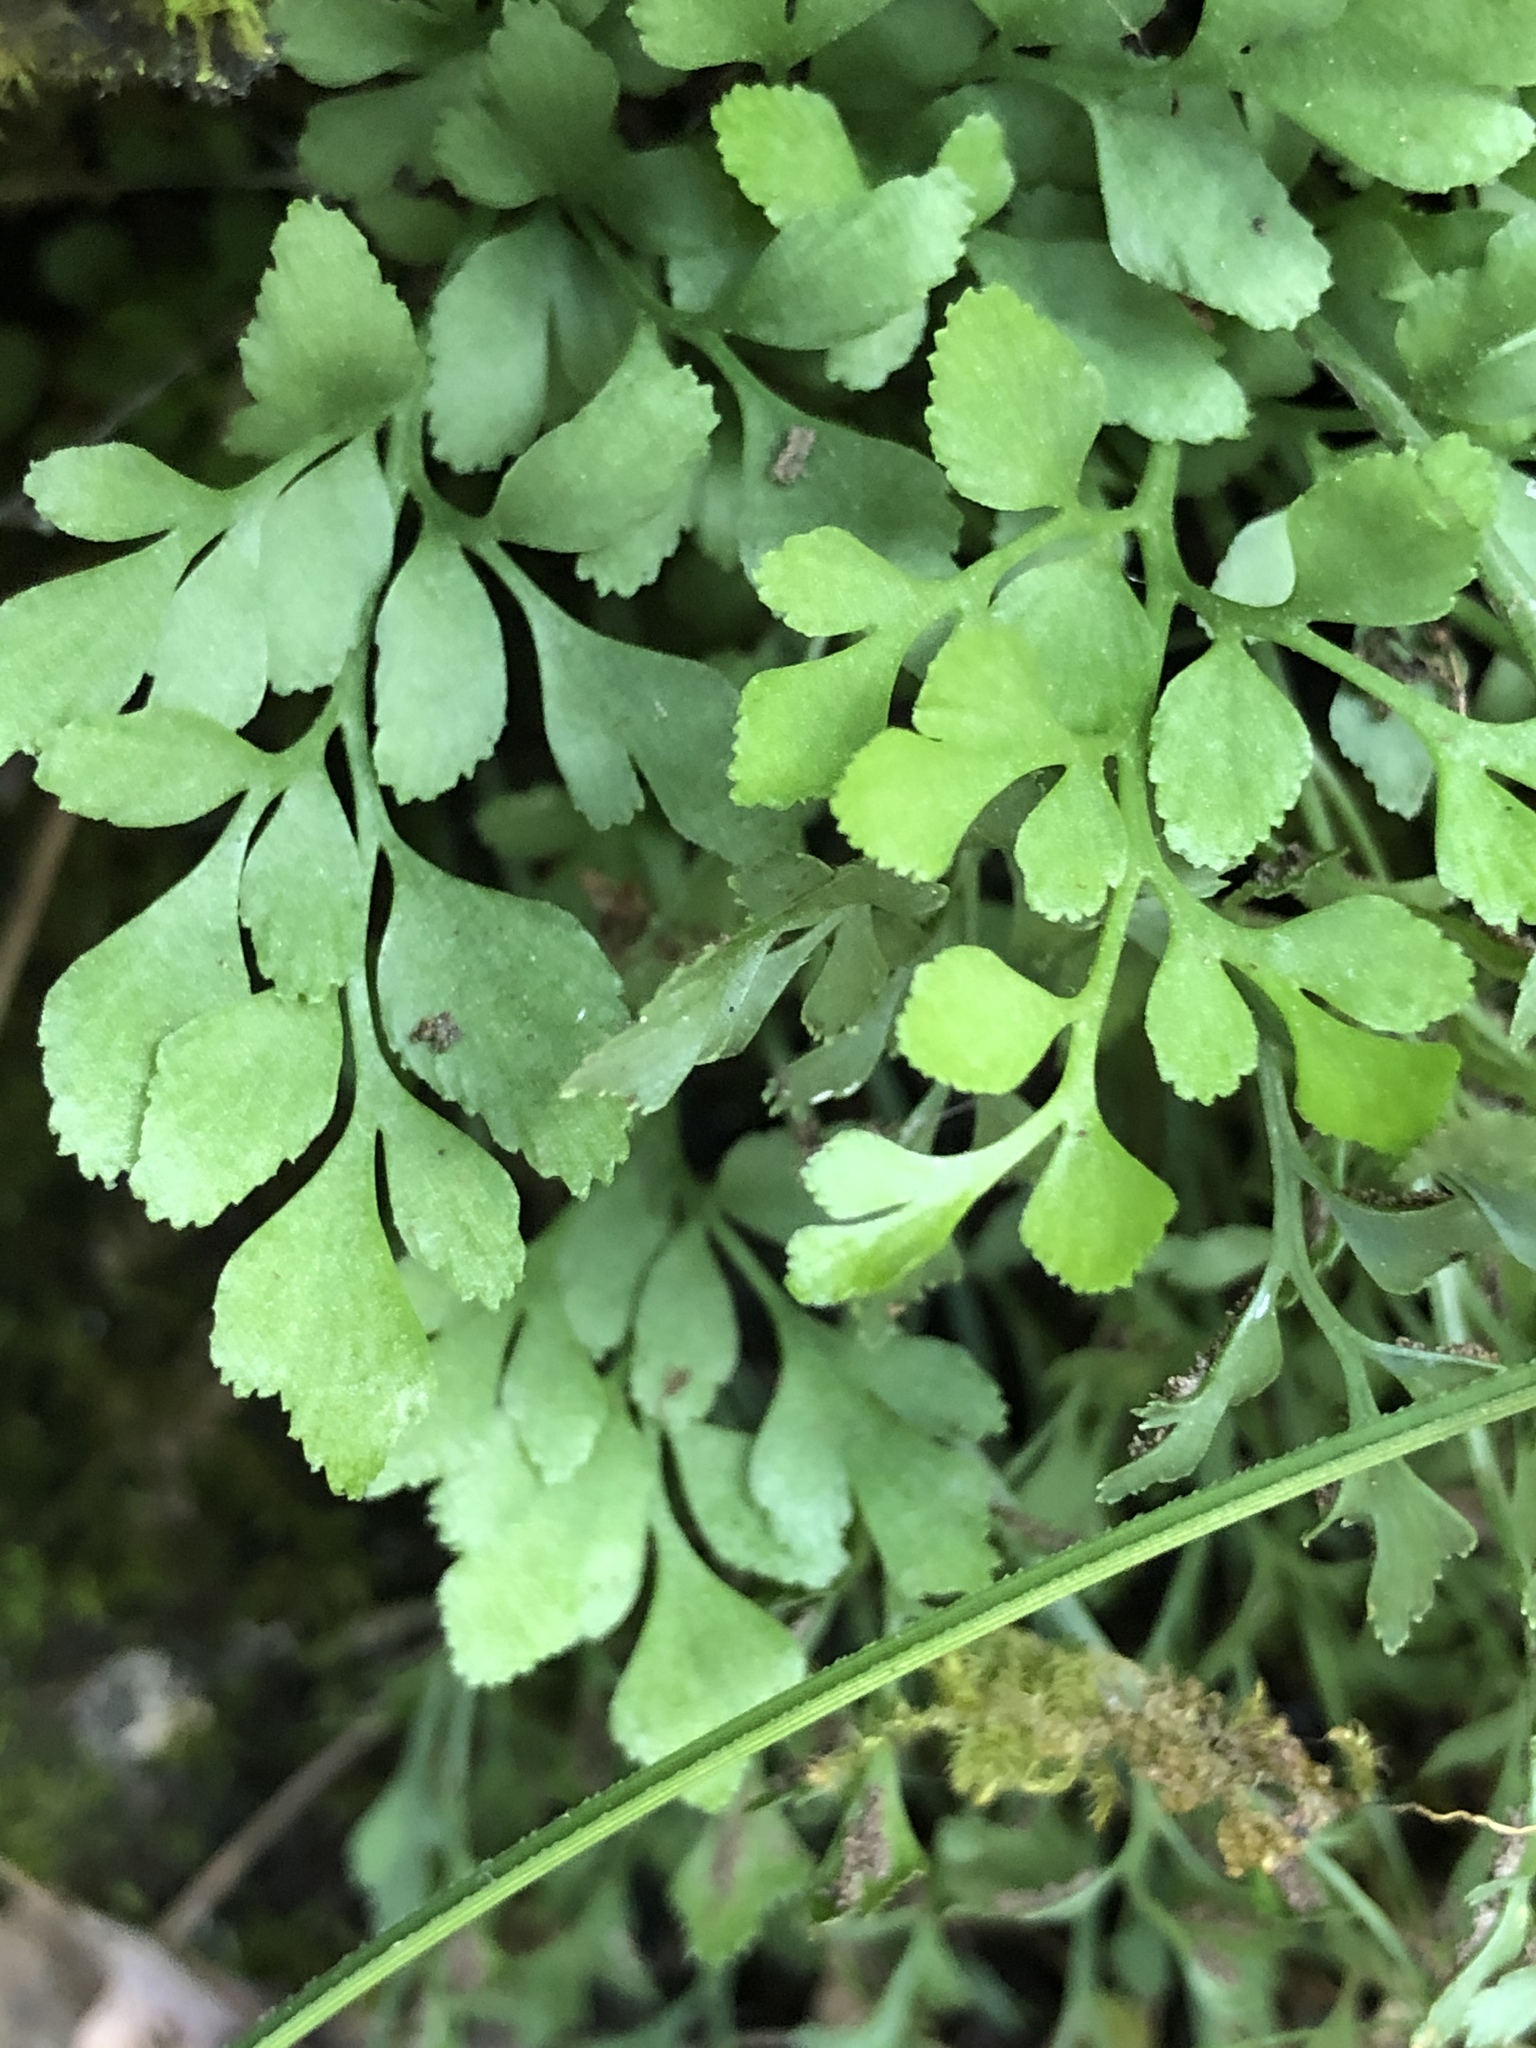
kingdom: Plantae
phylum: Tracheophyta
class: Polypodiopsida
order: Polypodiales
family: Aspleniaceae
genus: Asplenium
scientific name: Asplenium ruta-muraria
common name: Wall-rue
